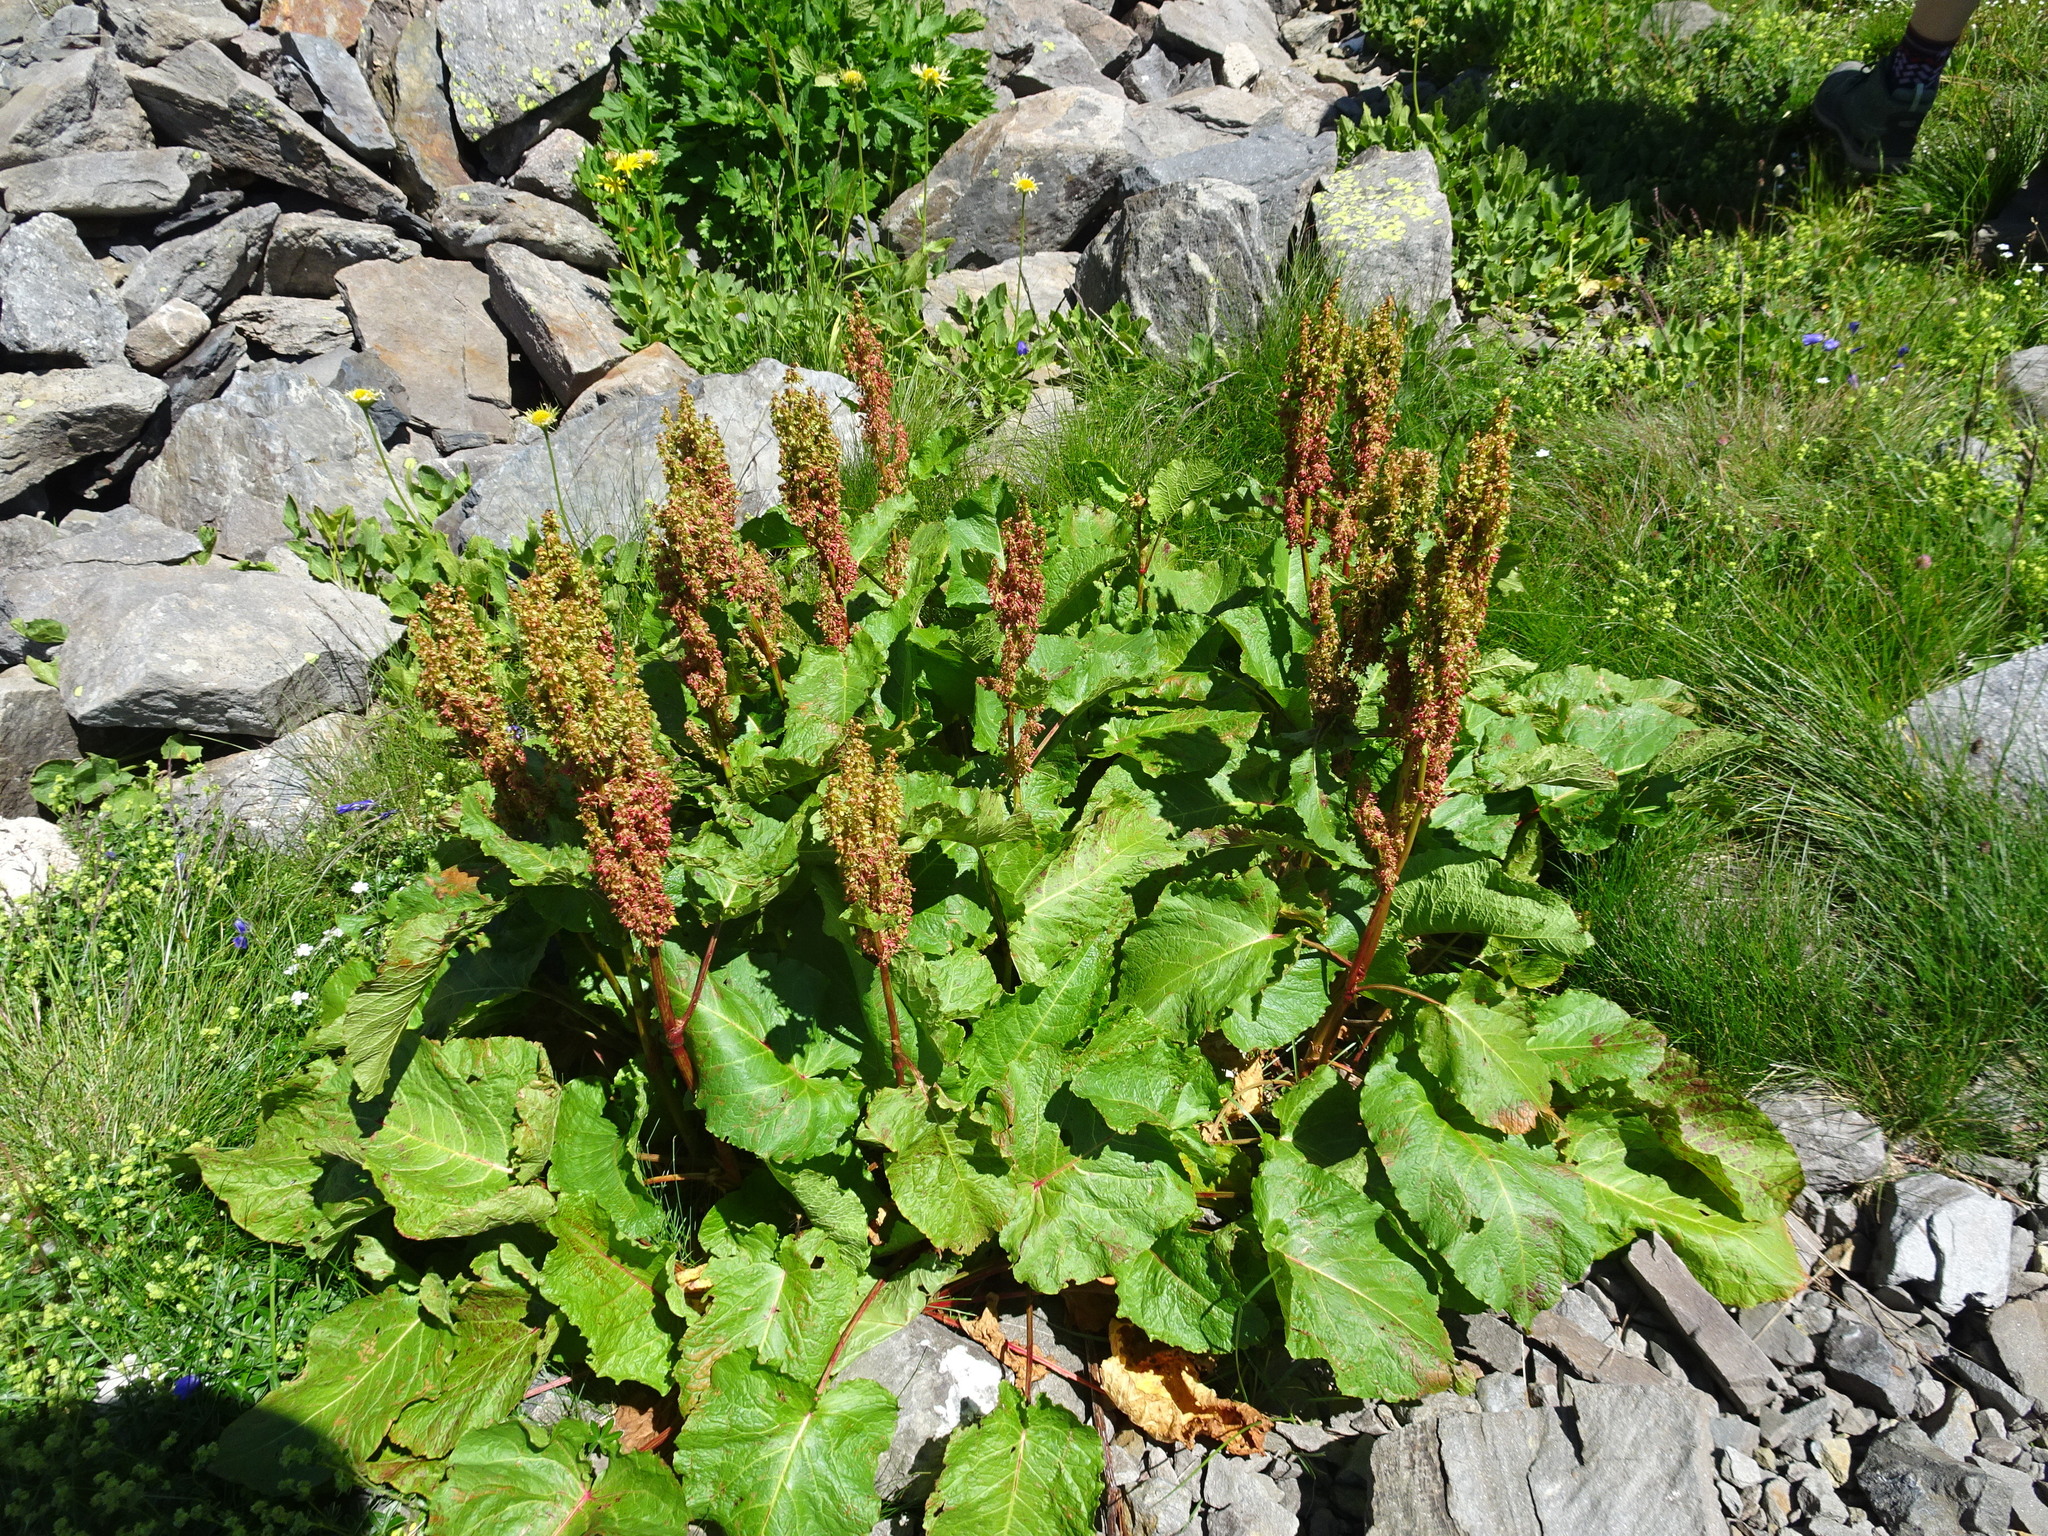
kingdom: Plantae
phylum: Tracheophyta
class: Magnoliopsida
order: Caryophyllales
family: Polygonaceae
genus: Rumex
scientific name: Rumex alpinus
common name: Alpine dock
